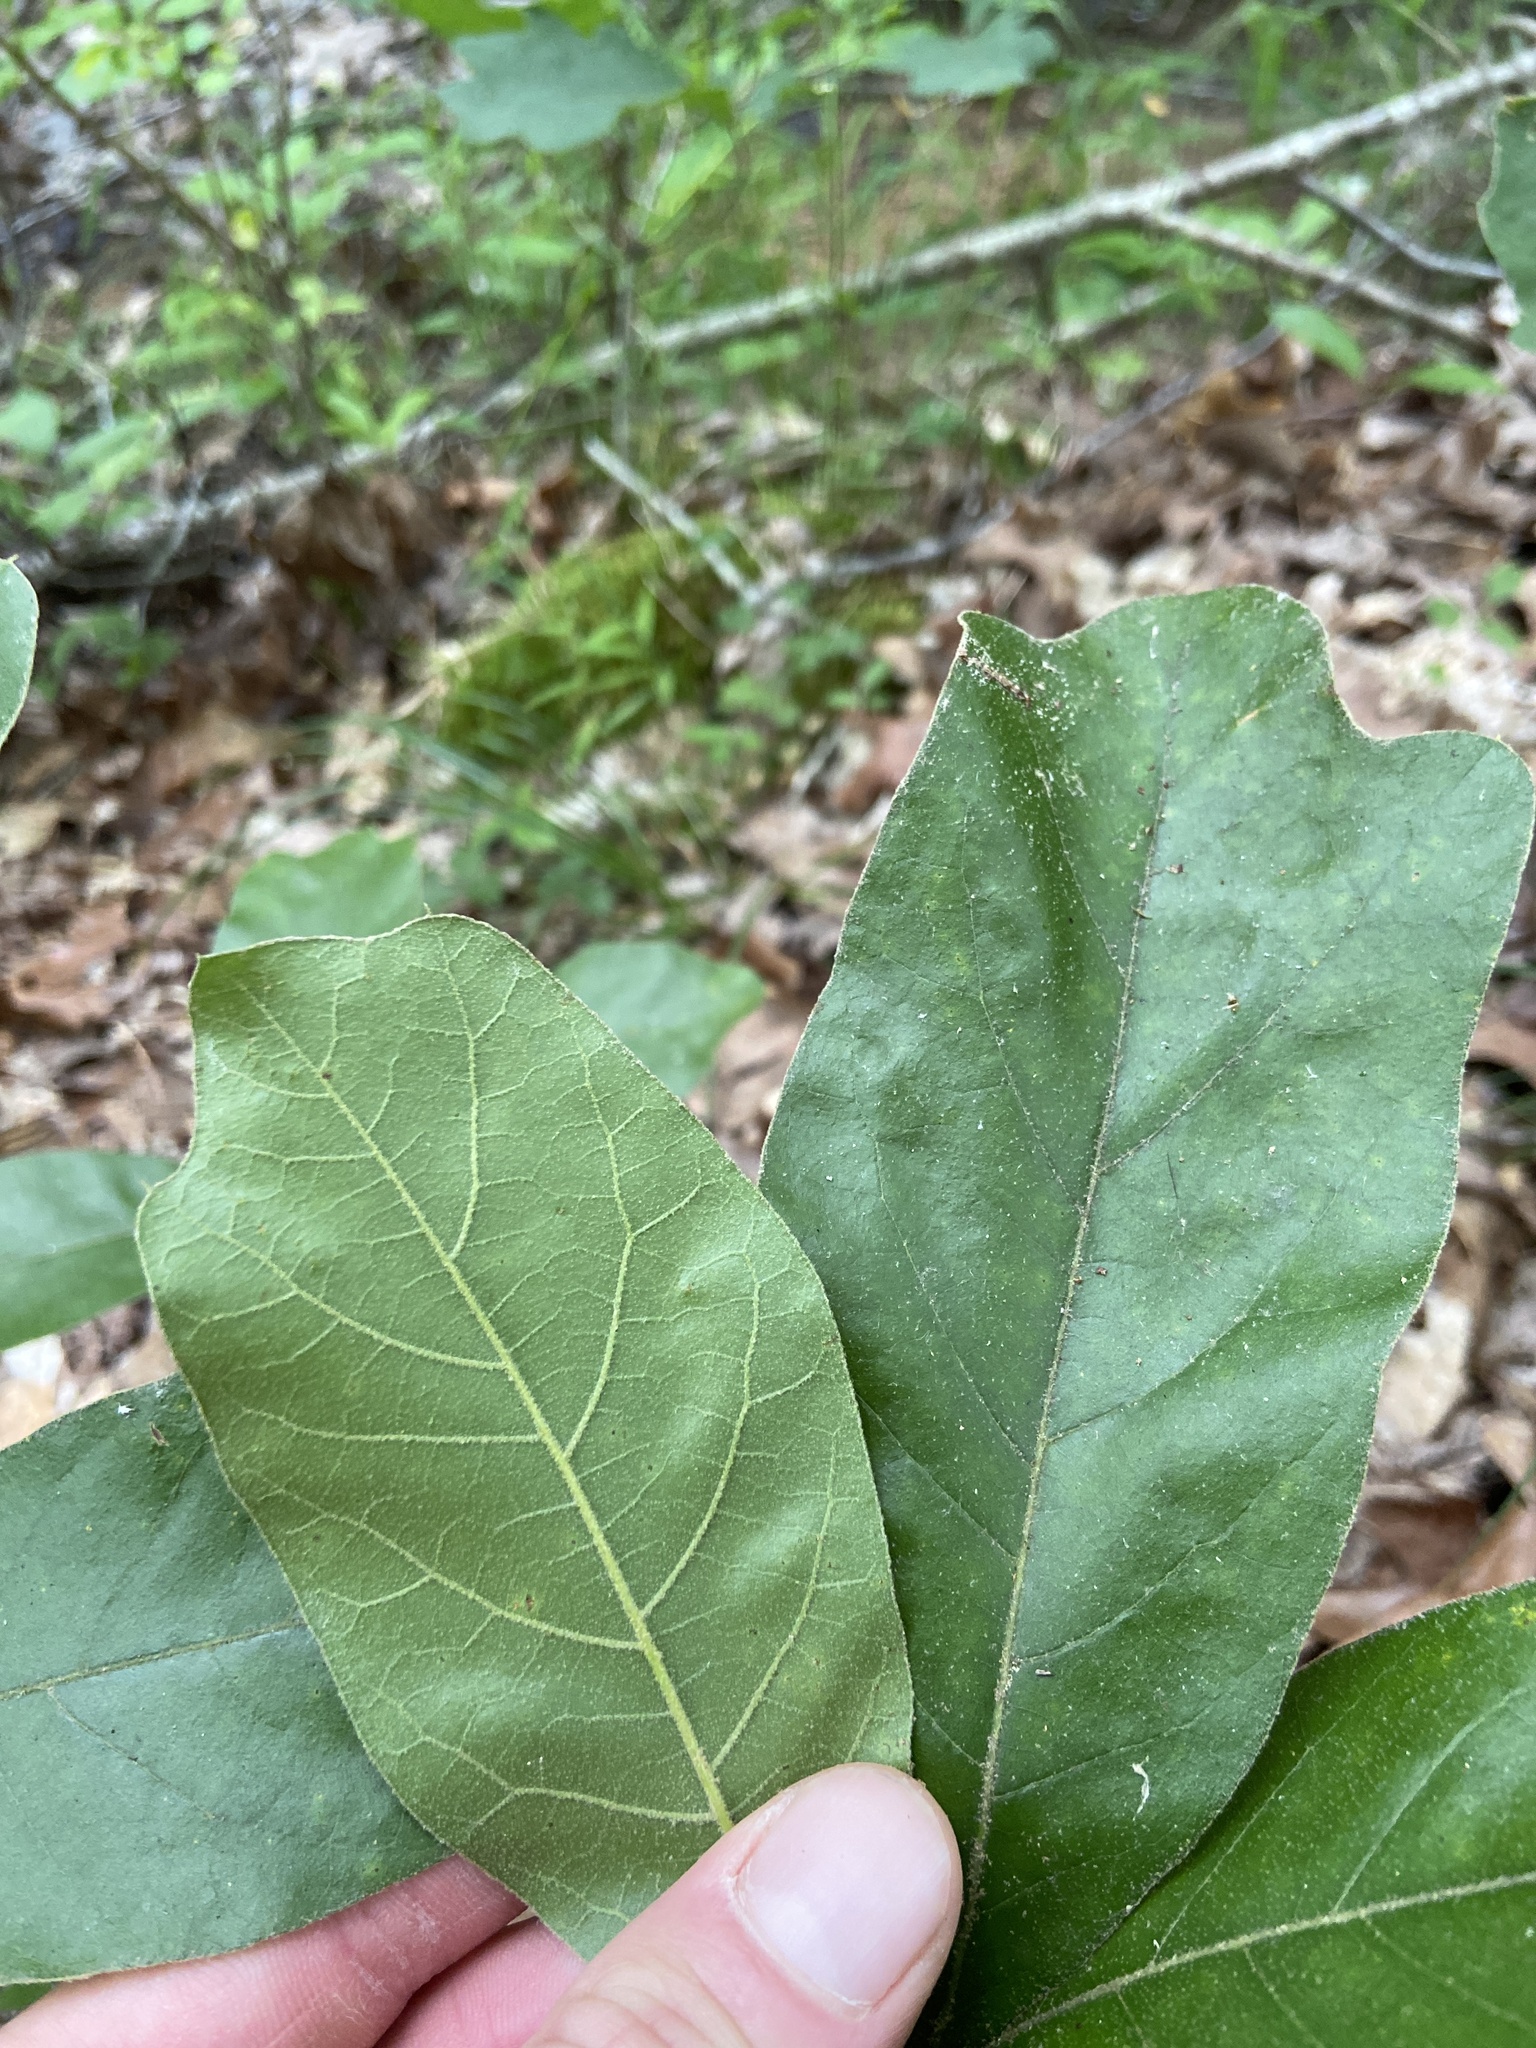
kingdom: Plantae
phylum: Tracheophyta
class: Magnoliopsida
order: Fagales
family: Fagaceae
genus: Quercus
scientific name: Quercus falcata
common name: Southern red oak
